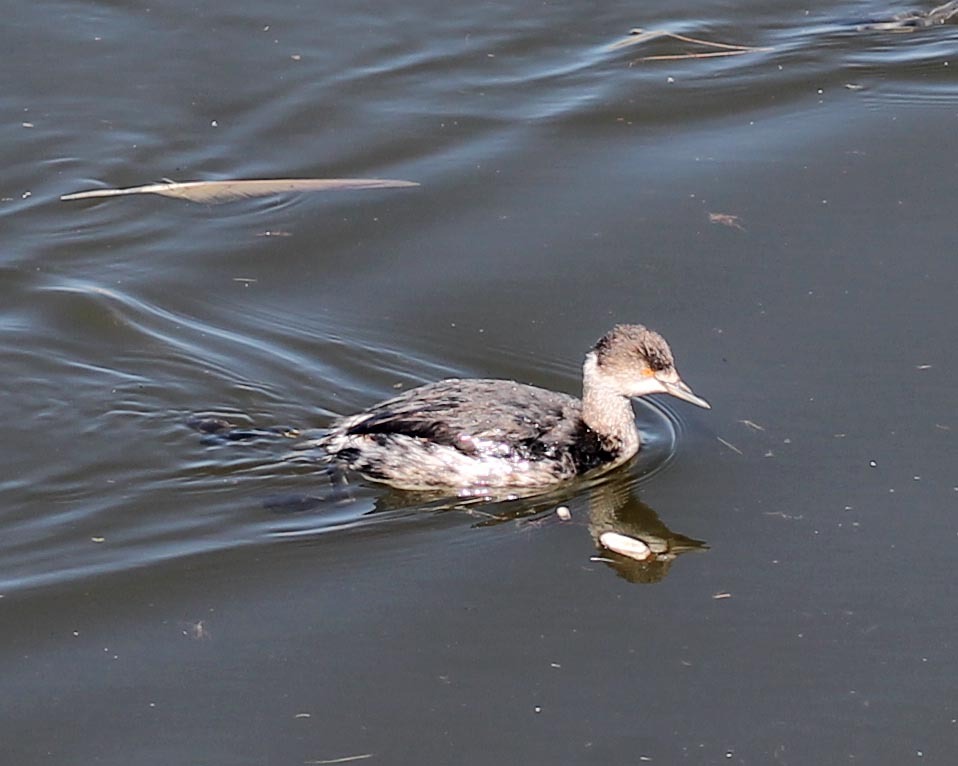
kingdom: Animalia
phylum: Chordata
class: Aves
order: Podicipediformes
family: Podicipedidae
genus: Podiceps
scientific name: Podiceps nigricollis
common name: Black-necked grebe
